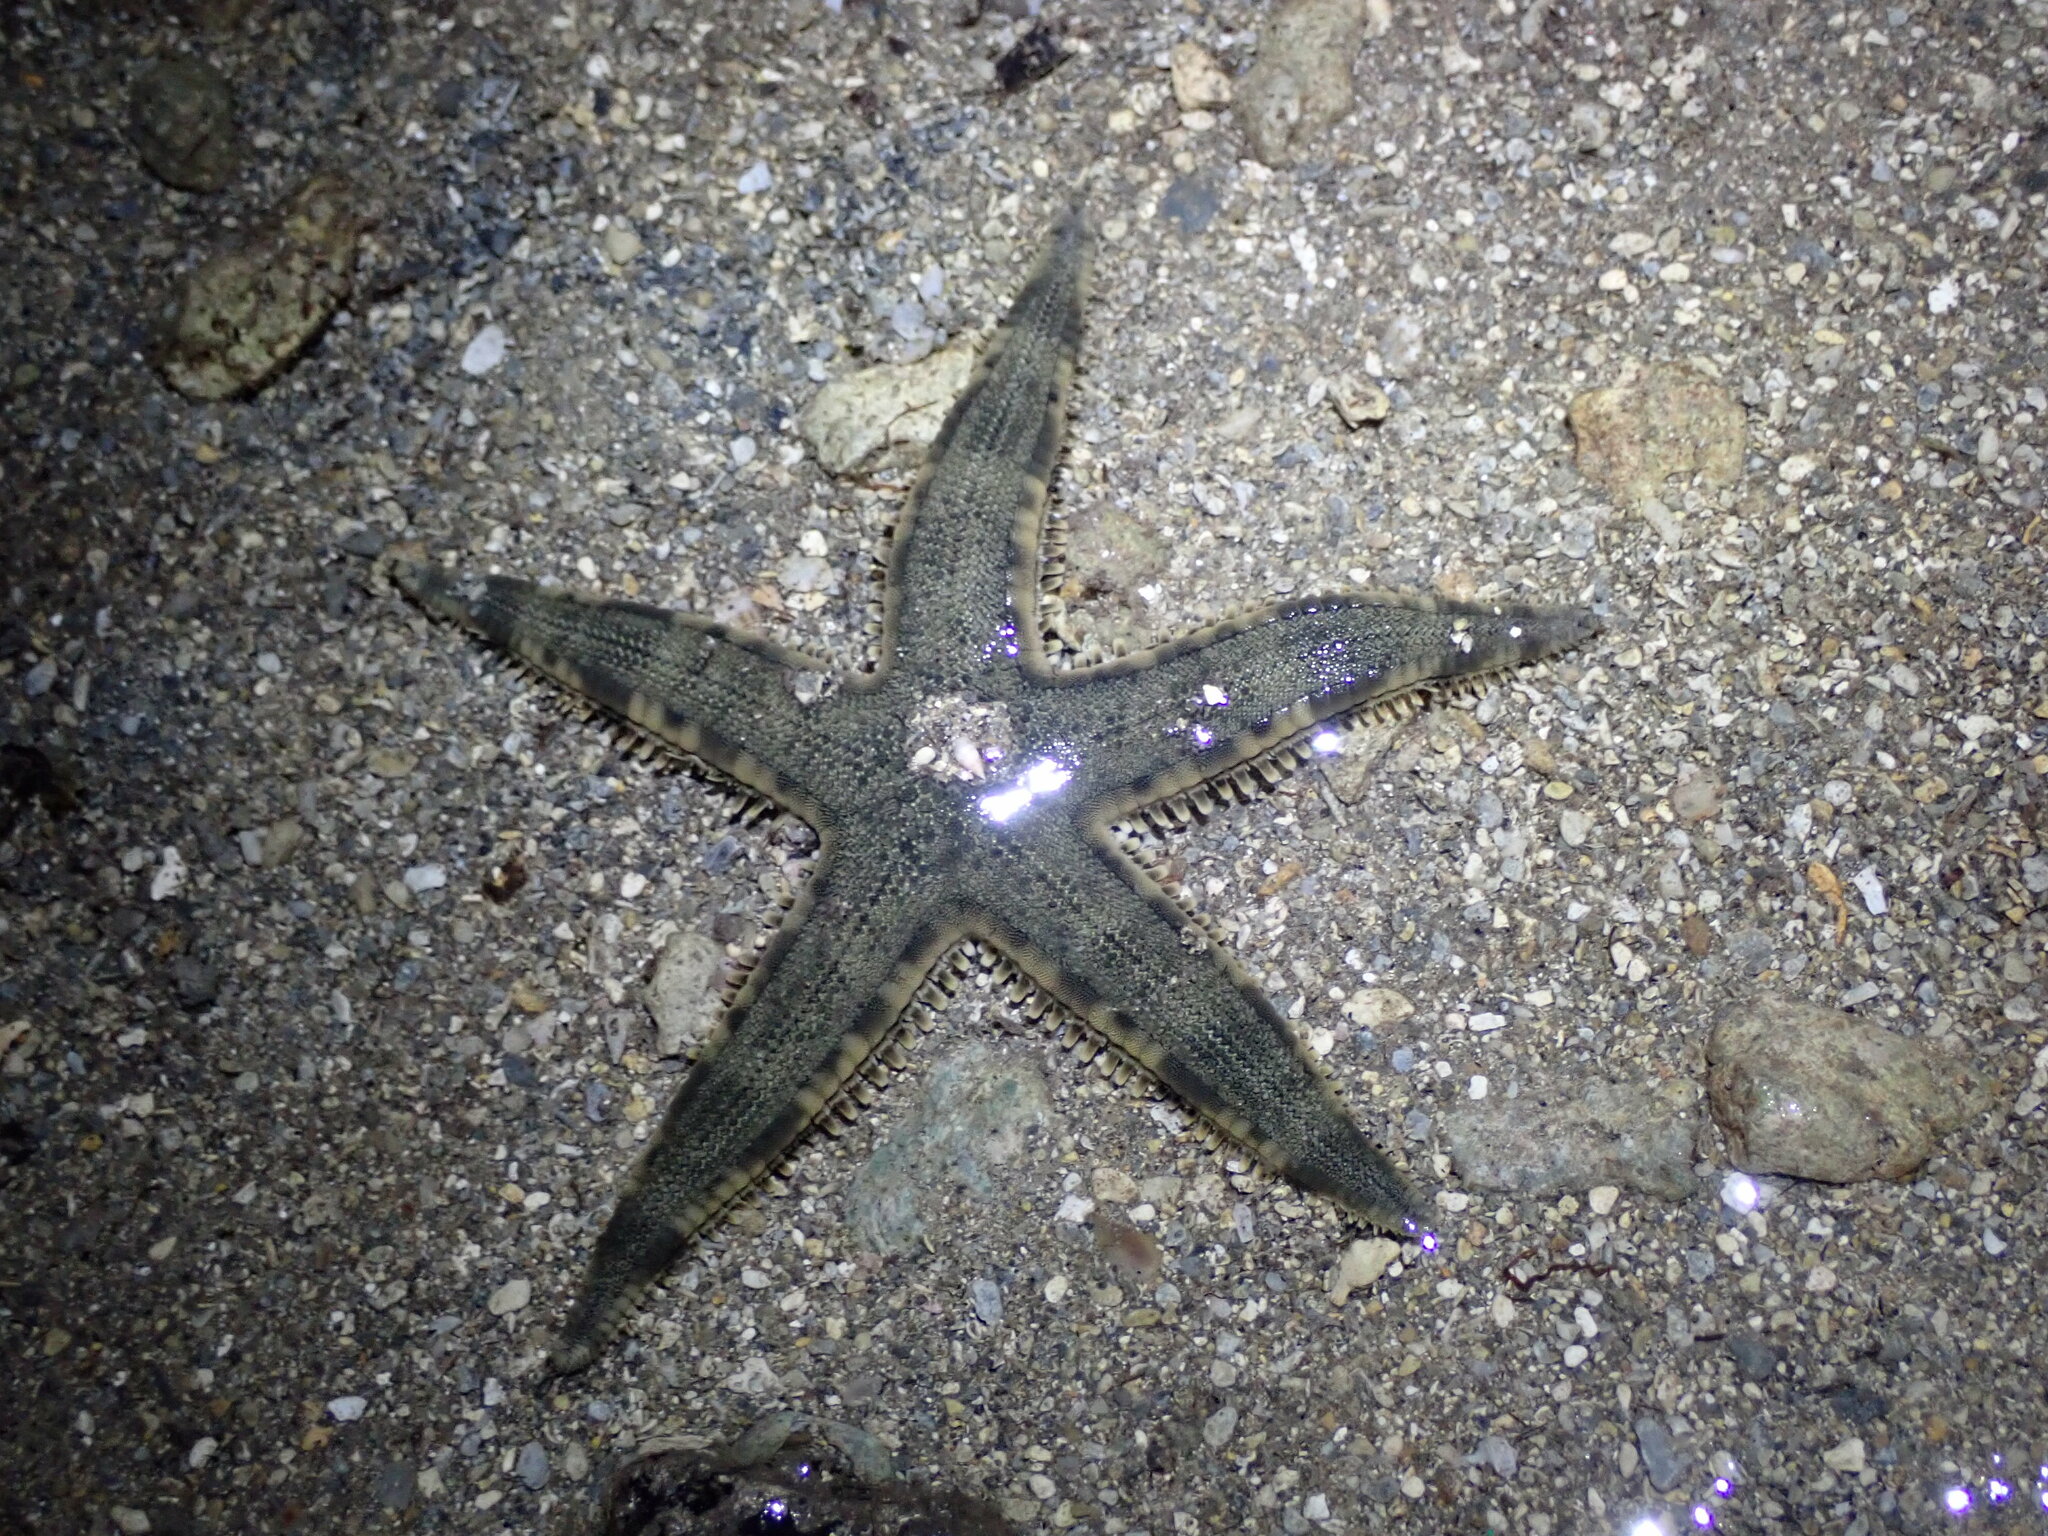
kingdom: Animalia
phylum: Echinodermata
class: Asteroidea
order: Valvatida
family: Archasteridae
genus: Archaster
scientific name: Archaster typicus
